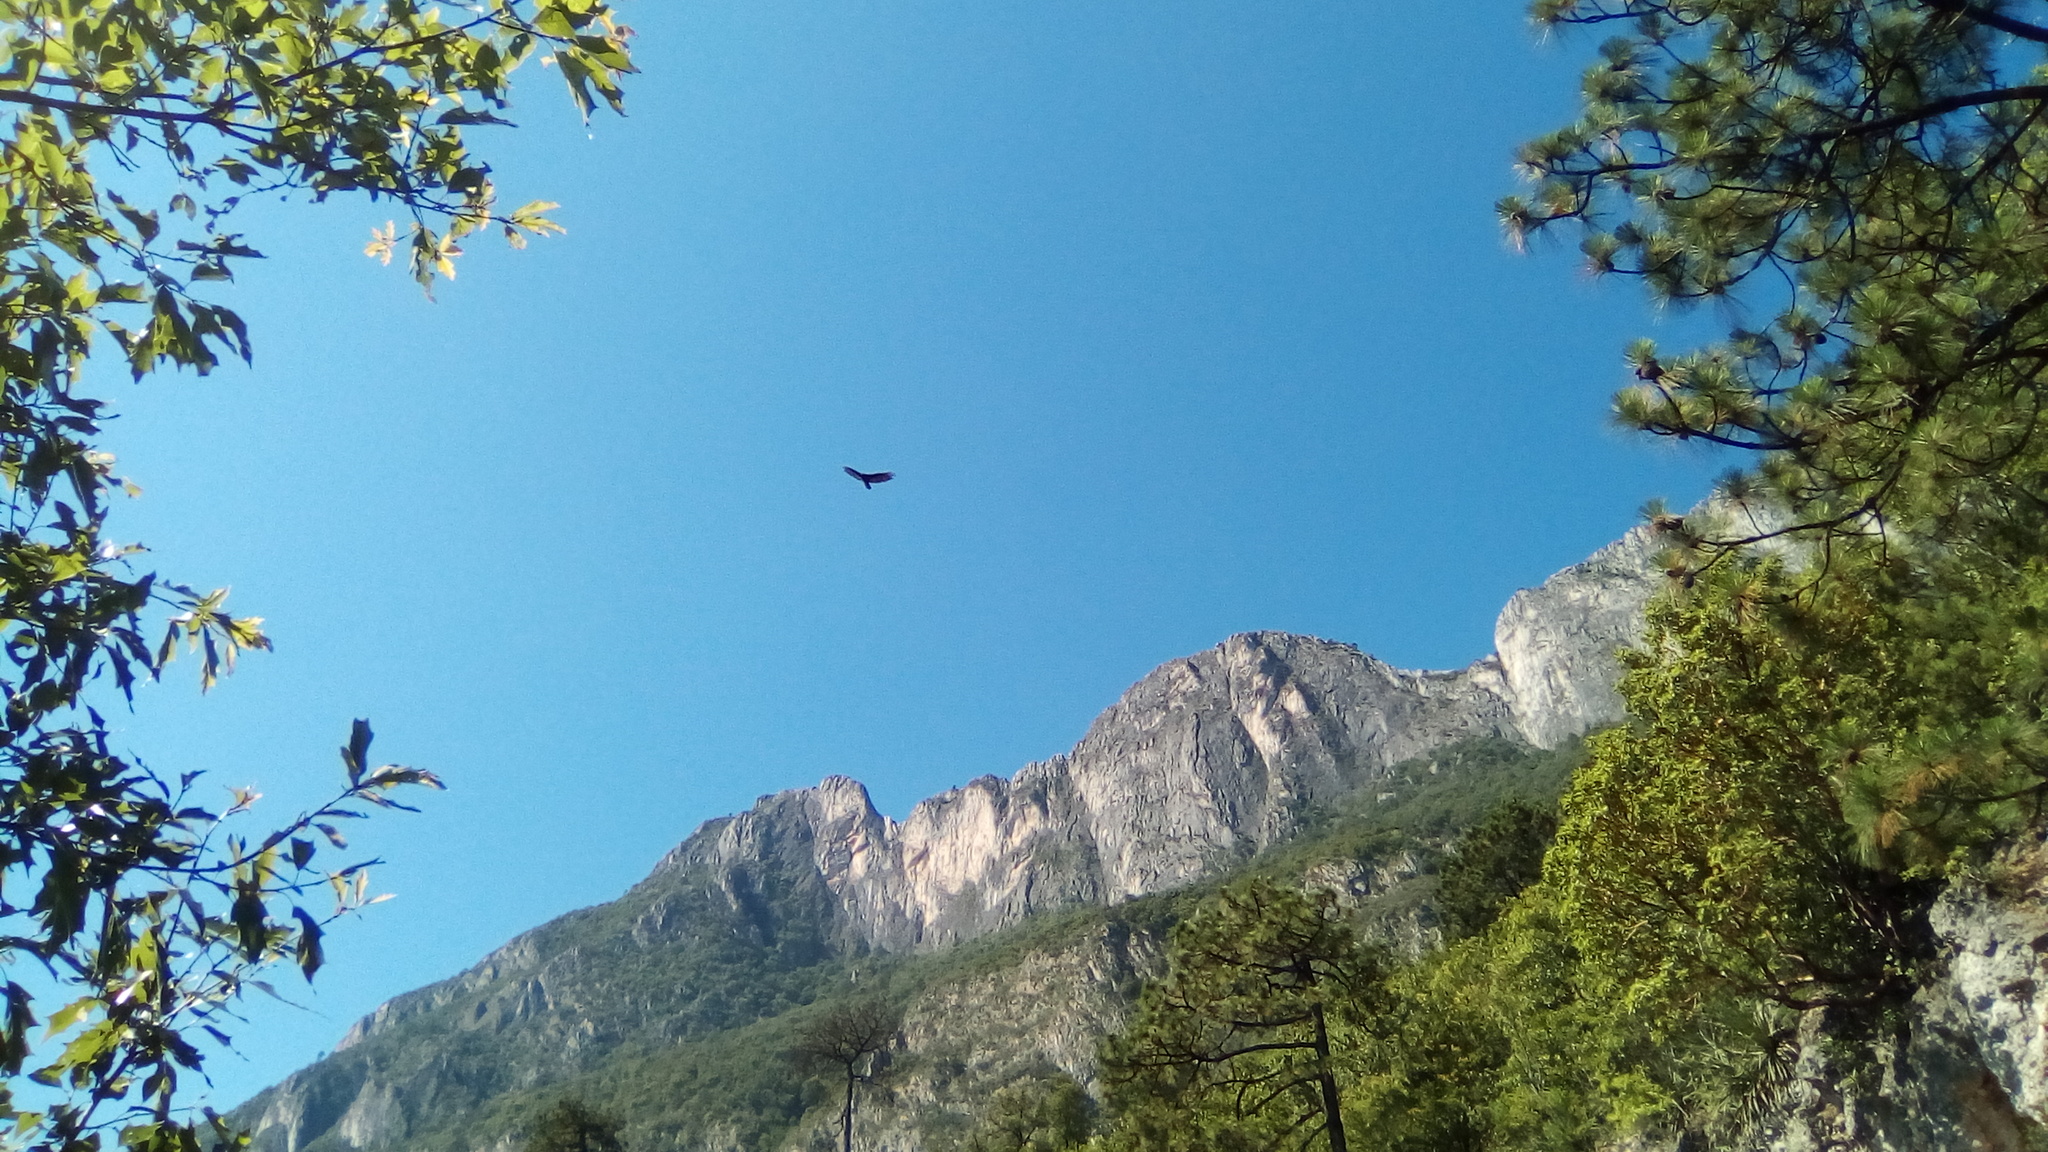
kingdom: Animalia
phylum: Chordata
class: Aves
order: Accipitriformes
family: Cathartidae
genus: Cathartes
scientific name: Cathartes aura
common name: Turkey vulture
